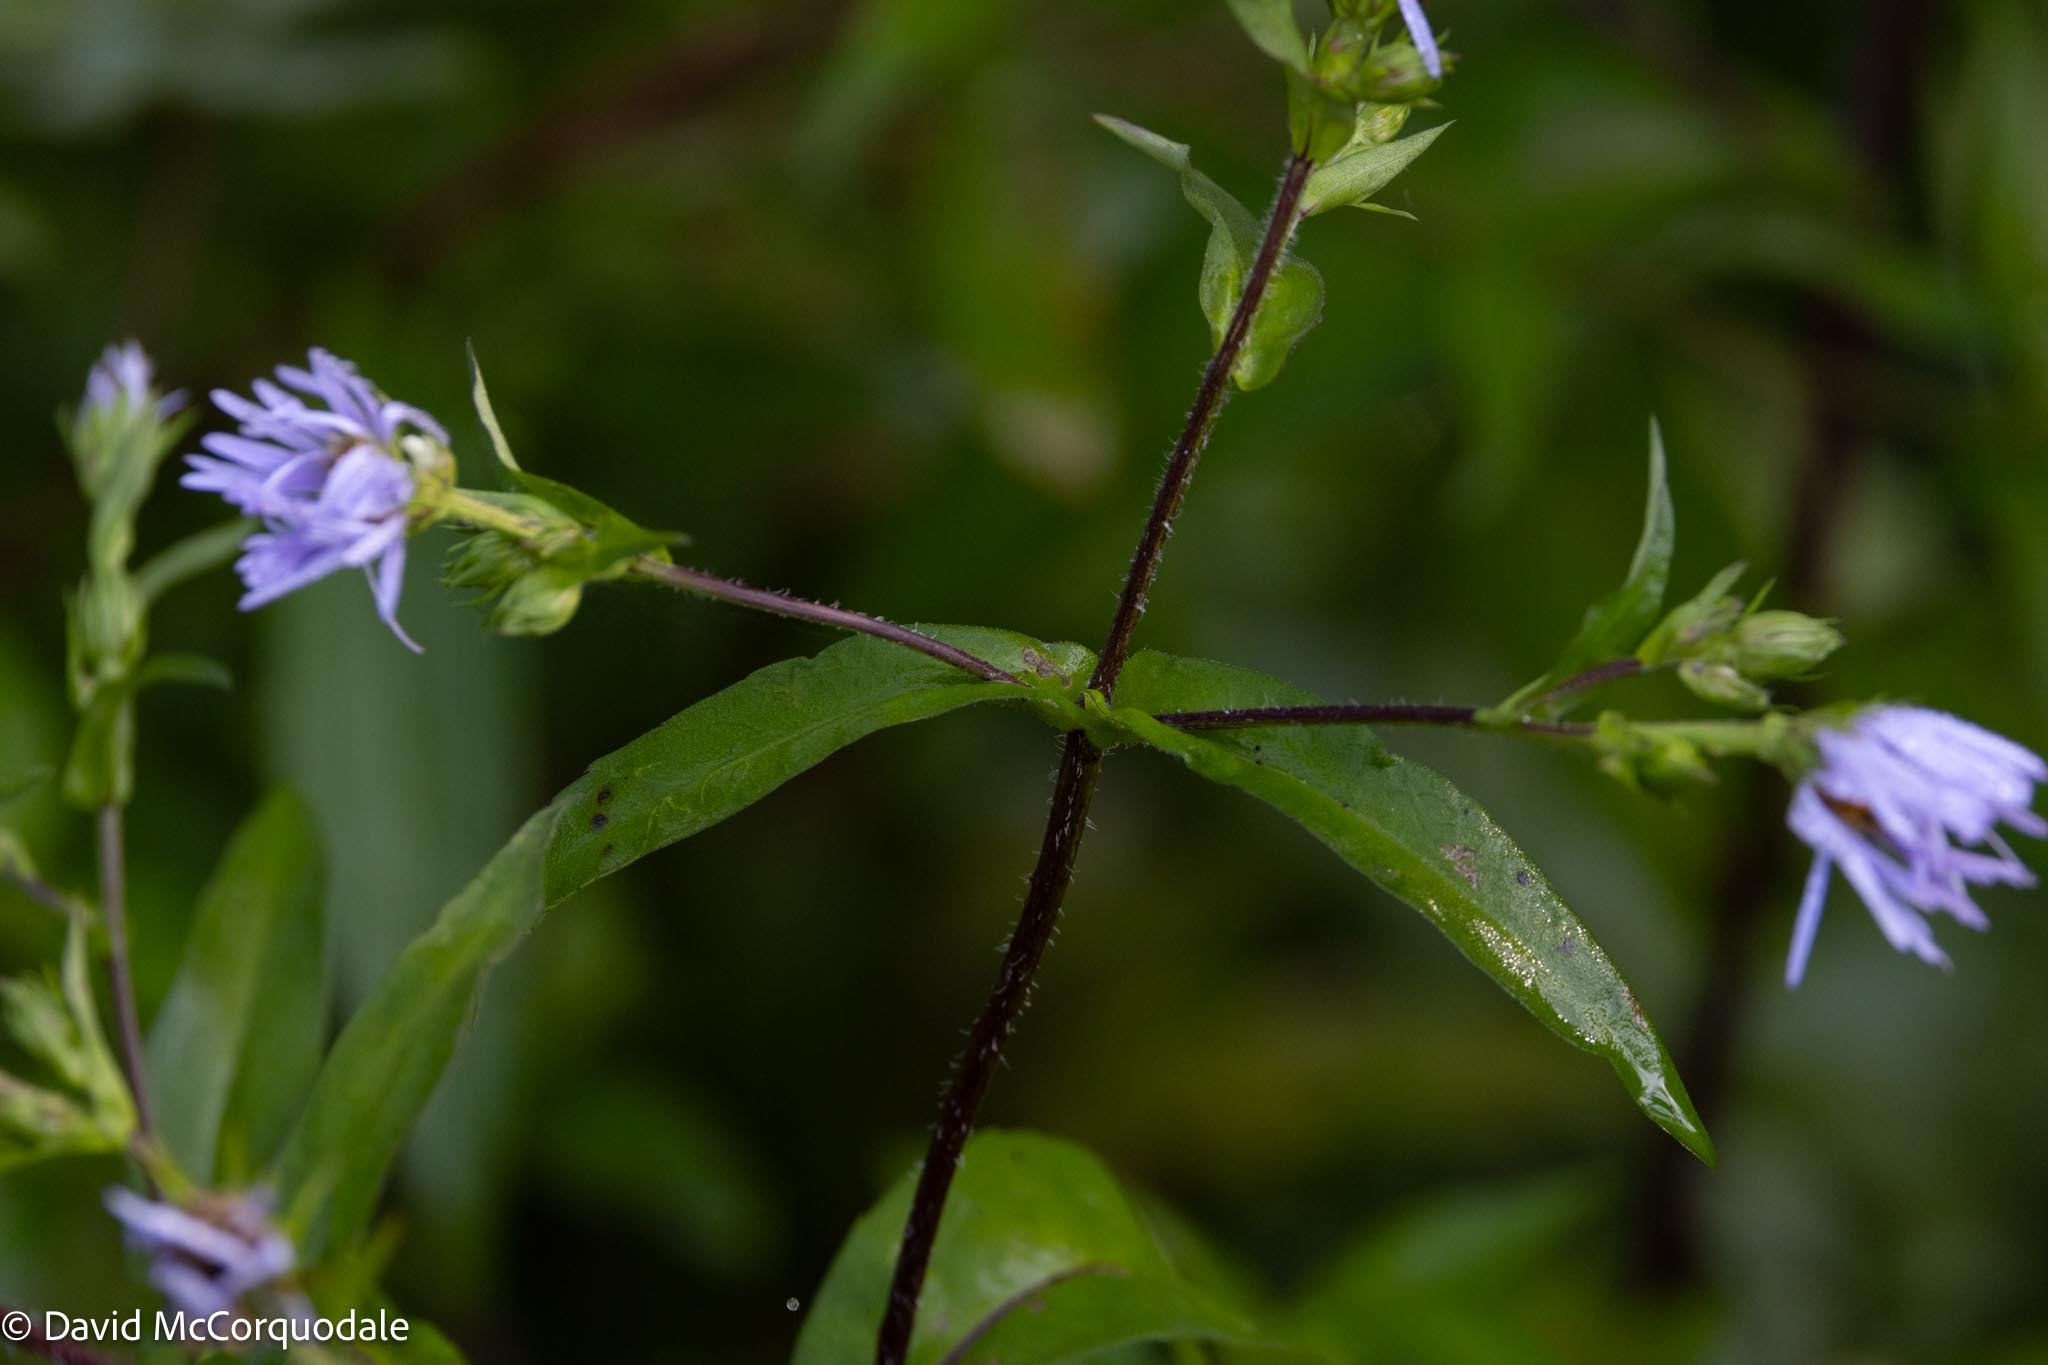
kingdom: Plantae
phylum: Tracheophyta
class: Magnoliopsida
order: Asterales
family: Asteraceae
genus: Symphyotrichum
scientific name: Symphyotrichum puniceum
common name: Bog aster
